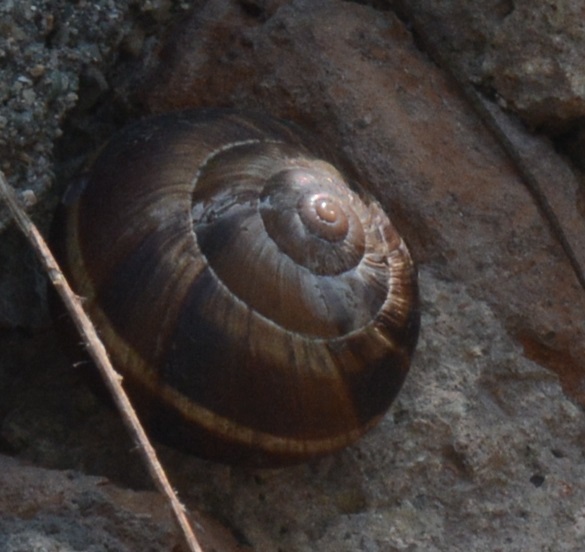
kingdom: Animalia
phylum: Mollusca
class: Gastropoda
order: Stylommatophora
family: Helicidae
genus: Helix
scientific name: Helix lucorum
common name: Turkish snail
